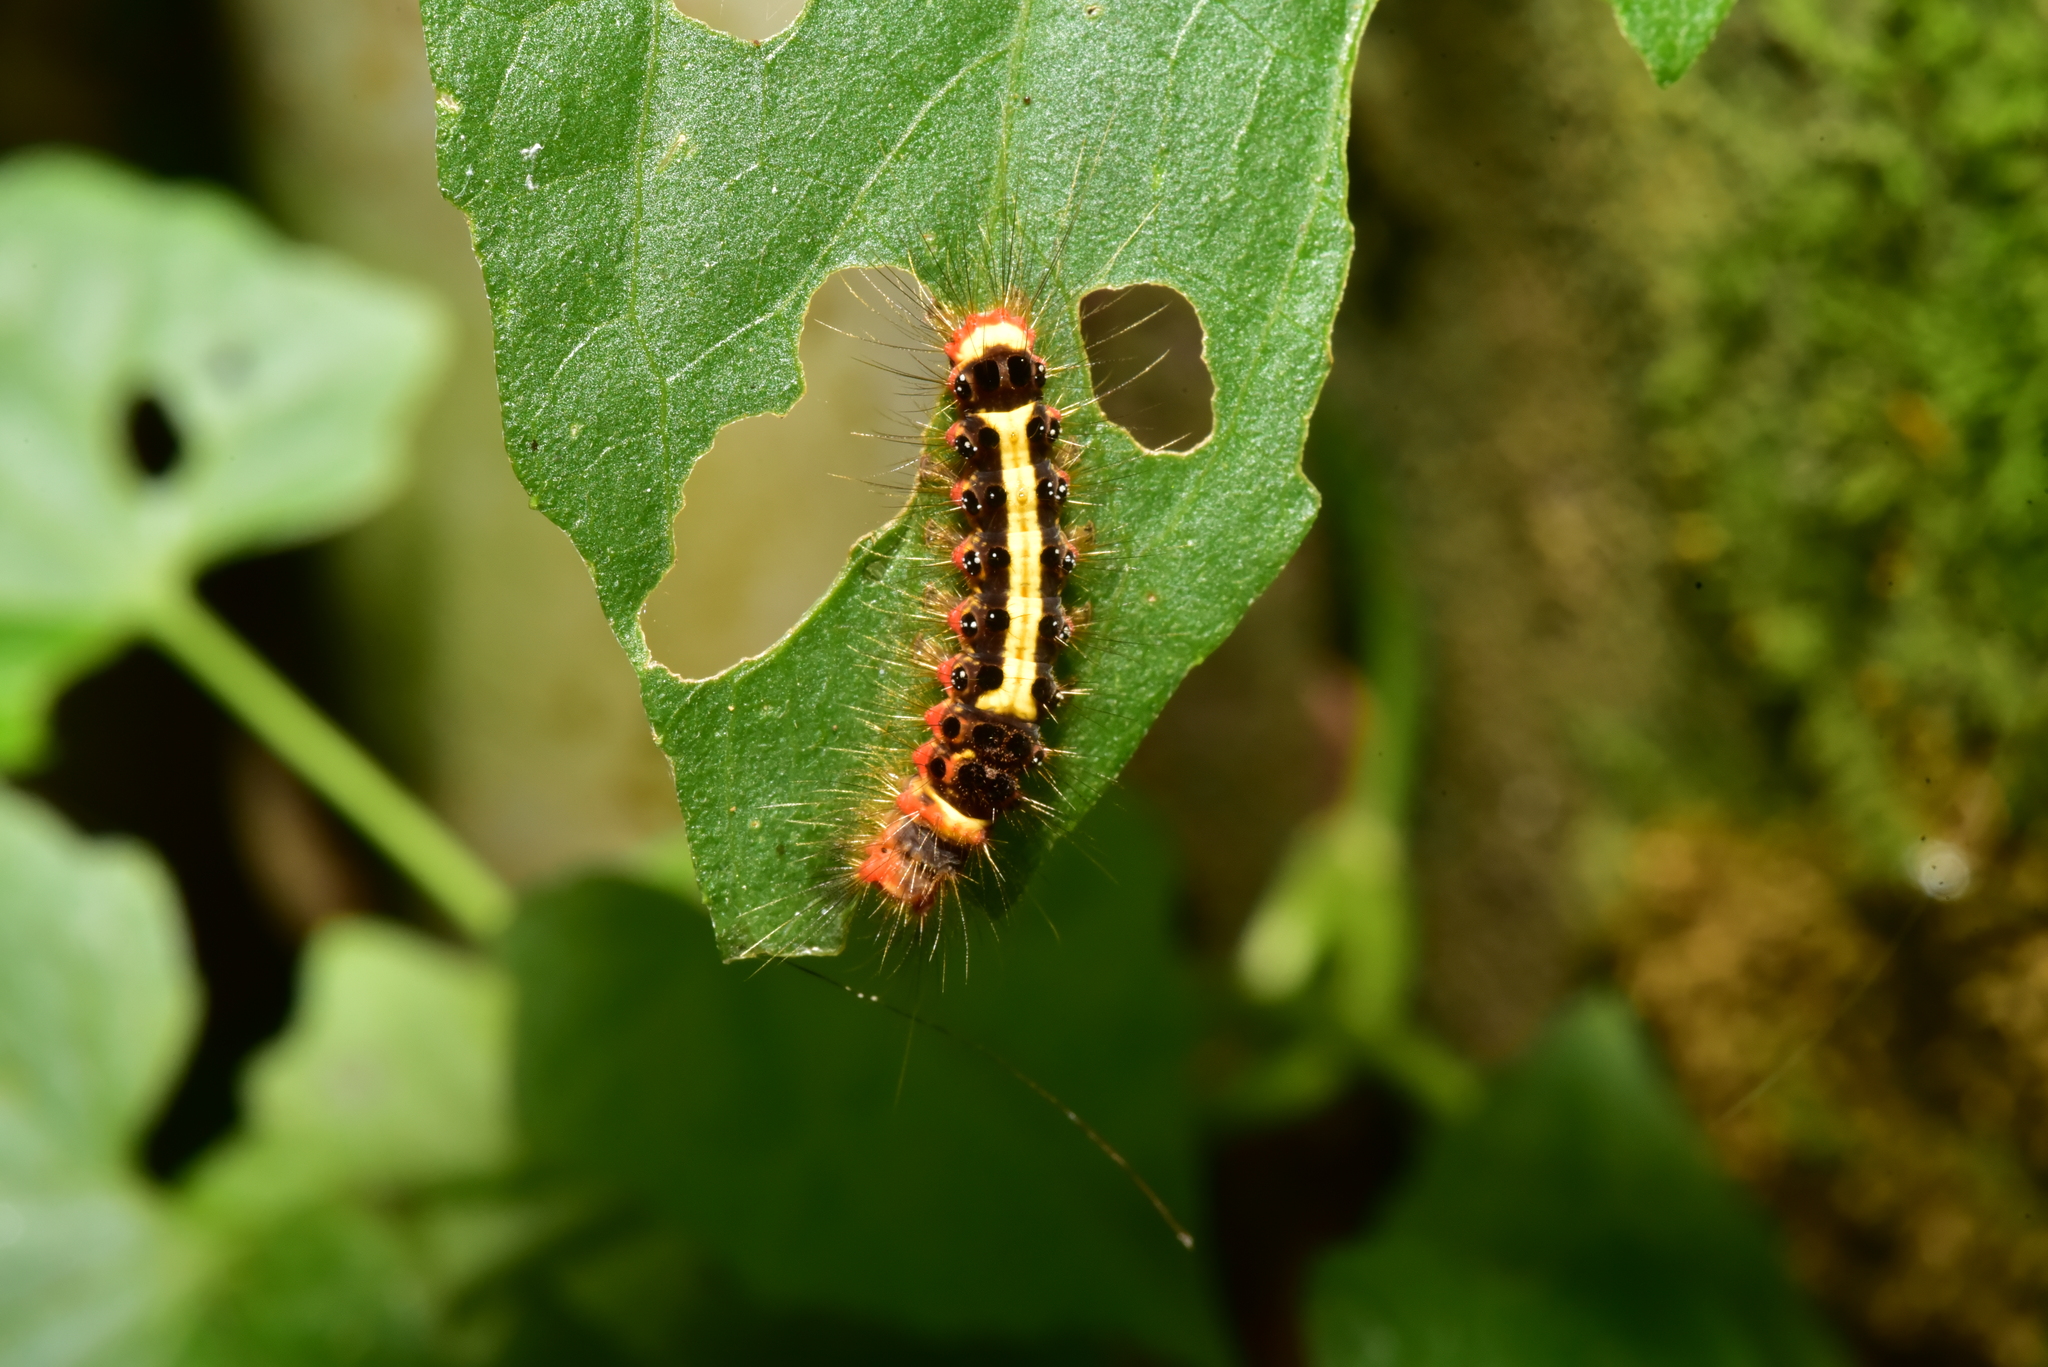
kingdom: Animalia
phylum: Arthropoda
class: Insecta
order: Lepidoptera
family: Erebidae
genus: Euproctis
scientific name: Euproctis taiwana
